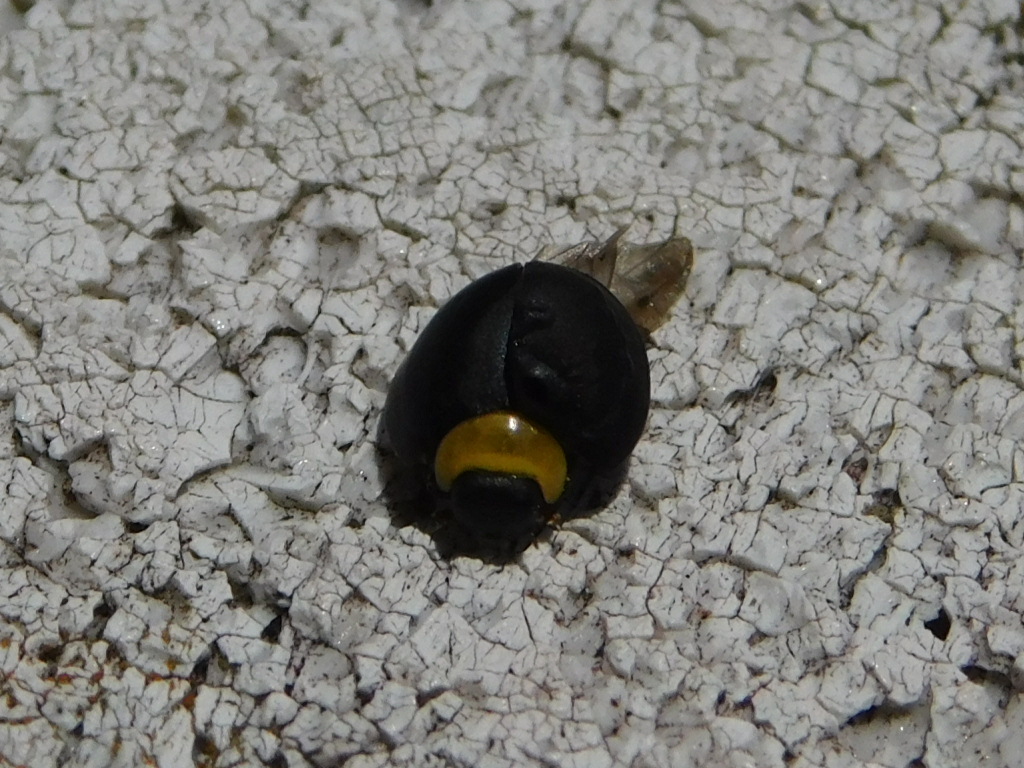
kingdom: Animalia
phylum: Arthropoda
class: Insecta
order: Coleoptera
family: Coccinellidae
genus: Egius
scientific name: Egius platycephalus
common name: Ladybird beetle
